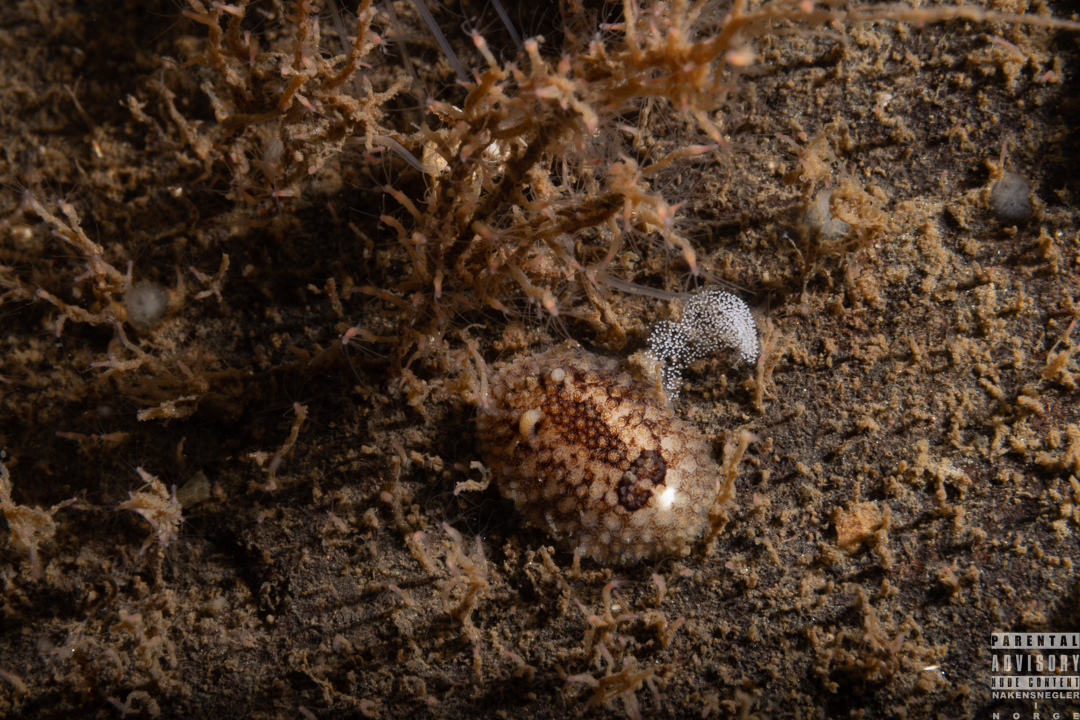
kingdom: Animalia
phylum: Mollusca
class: Gastropoda
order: Nudibranchia
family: Onchidorididae
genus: Onchidoris
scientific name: Onchidoris bilamellata
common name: Barnacle-eating onchidoris
